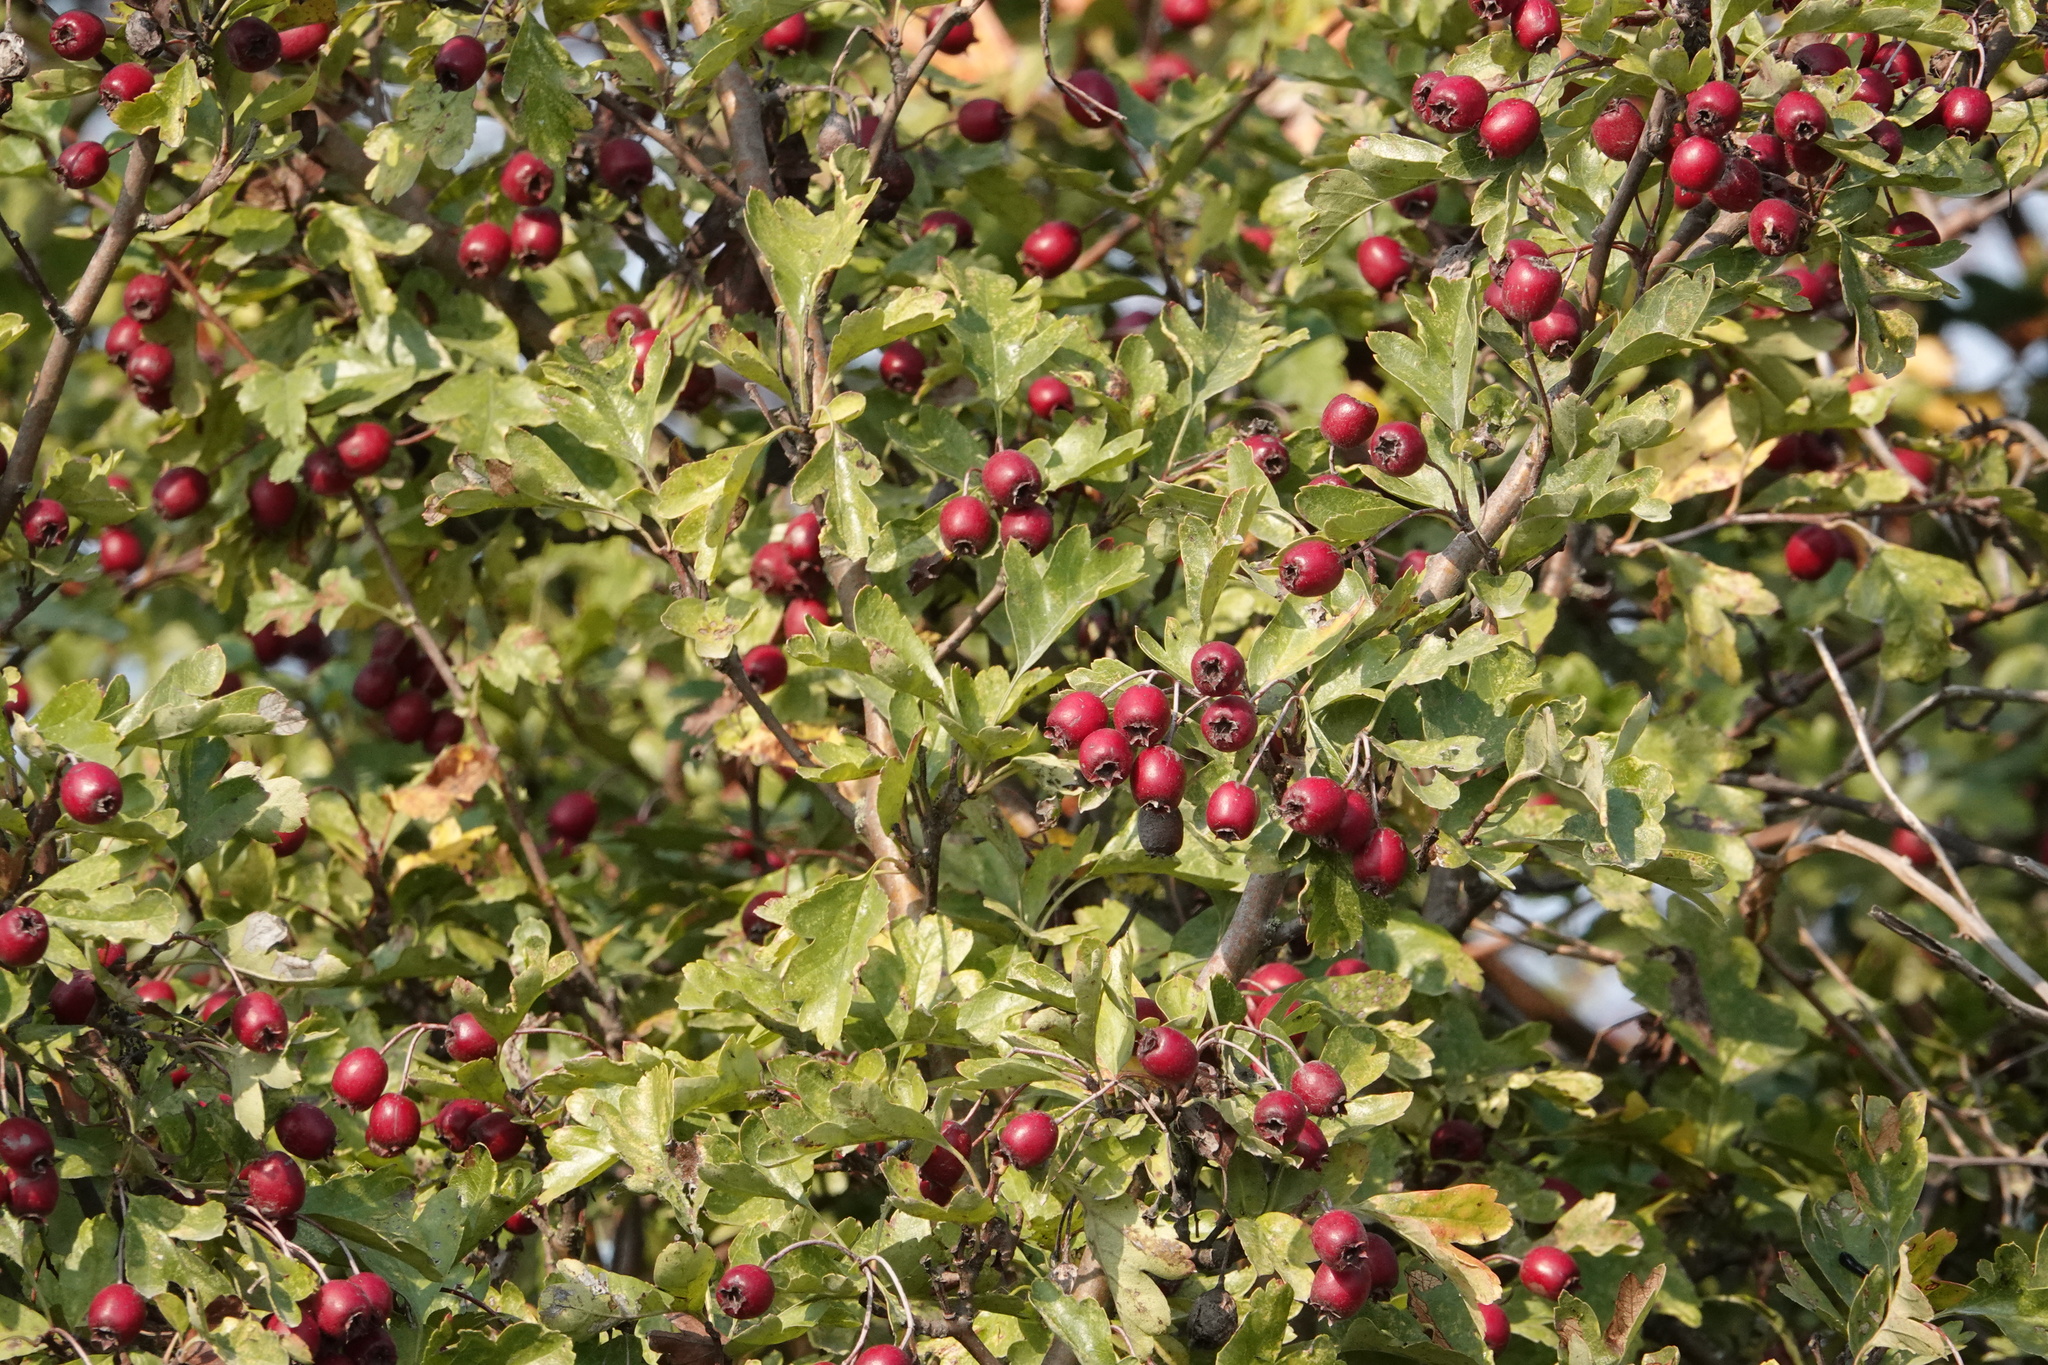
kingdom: Plantae
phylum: Tracheophyta
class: Magnoliopsida
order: Rosales
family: Rosaceae
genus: Crataegus
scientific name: Crataegus monogyna
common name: Hawthorn
